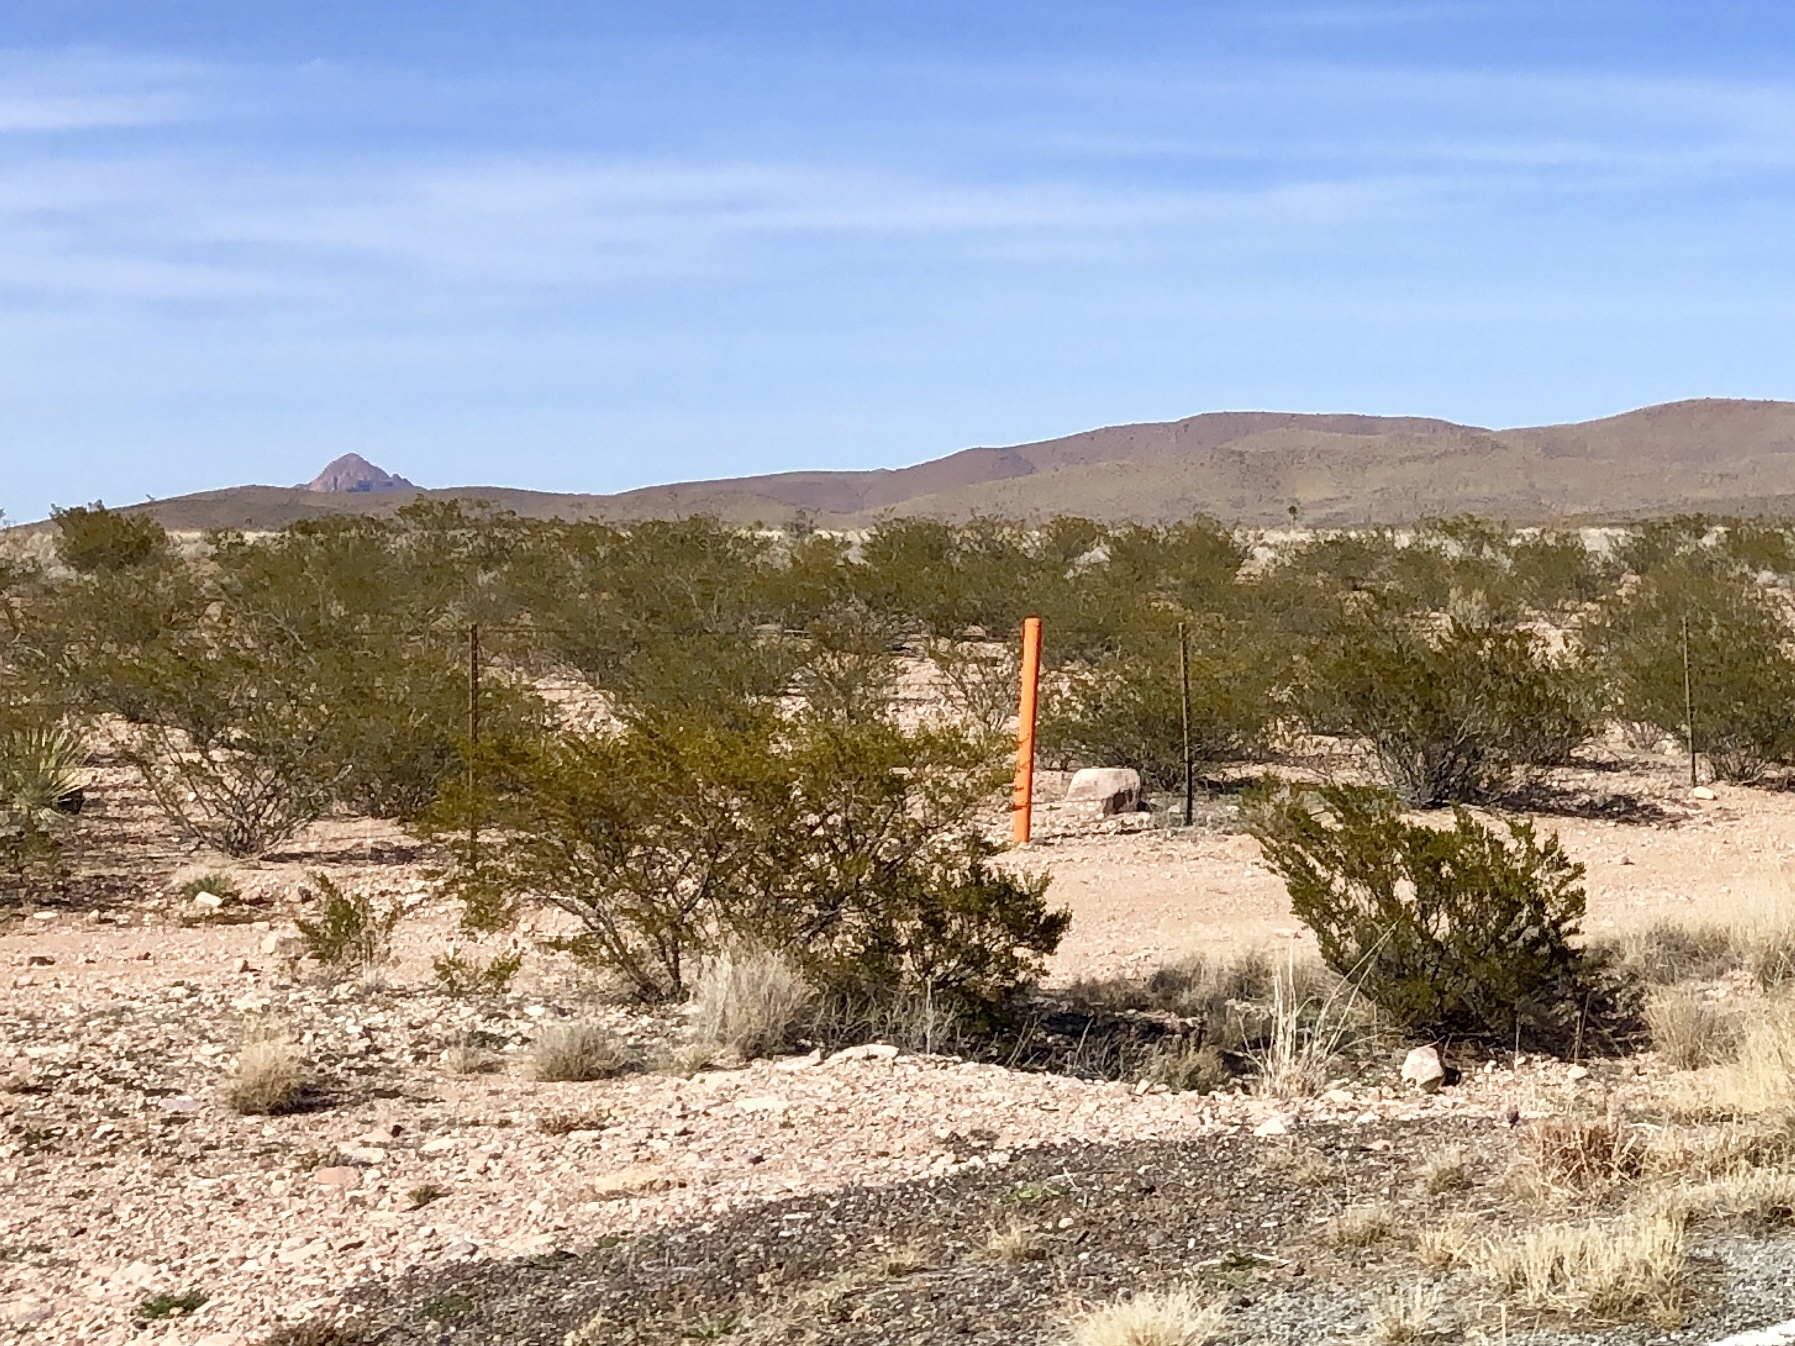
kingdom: Plantae
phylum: Tracheophyta
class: Magnoliopsida
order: Zygophyllales
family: Zygophyllaceae
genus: Larrea
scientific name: Larrea tridentata
